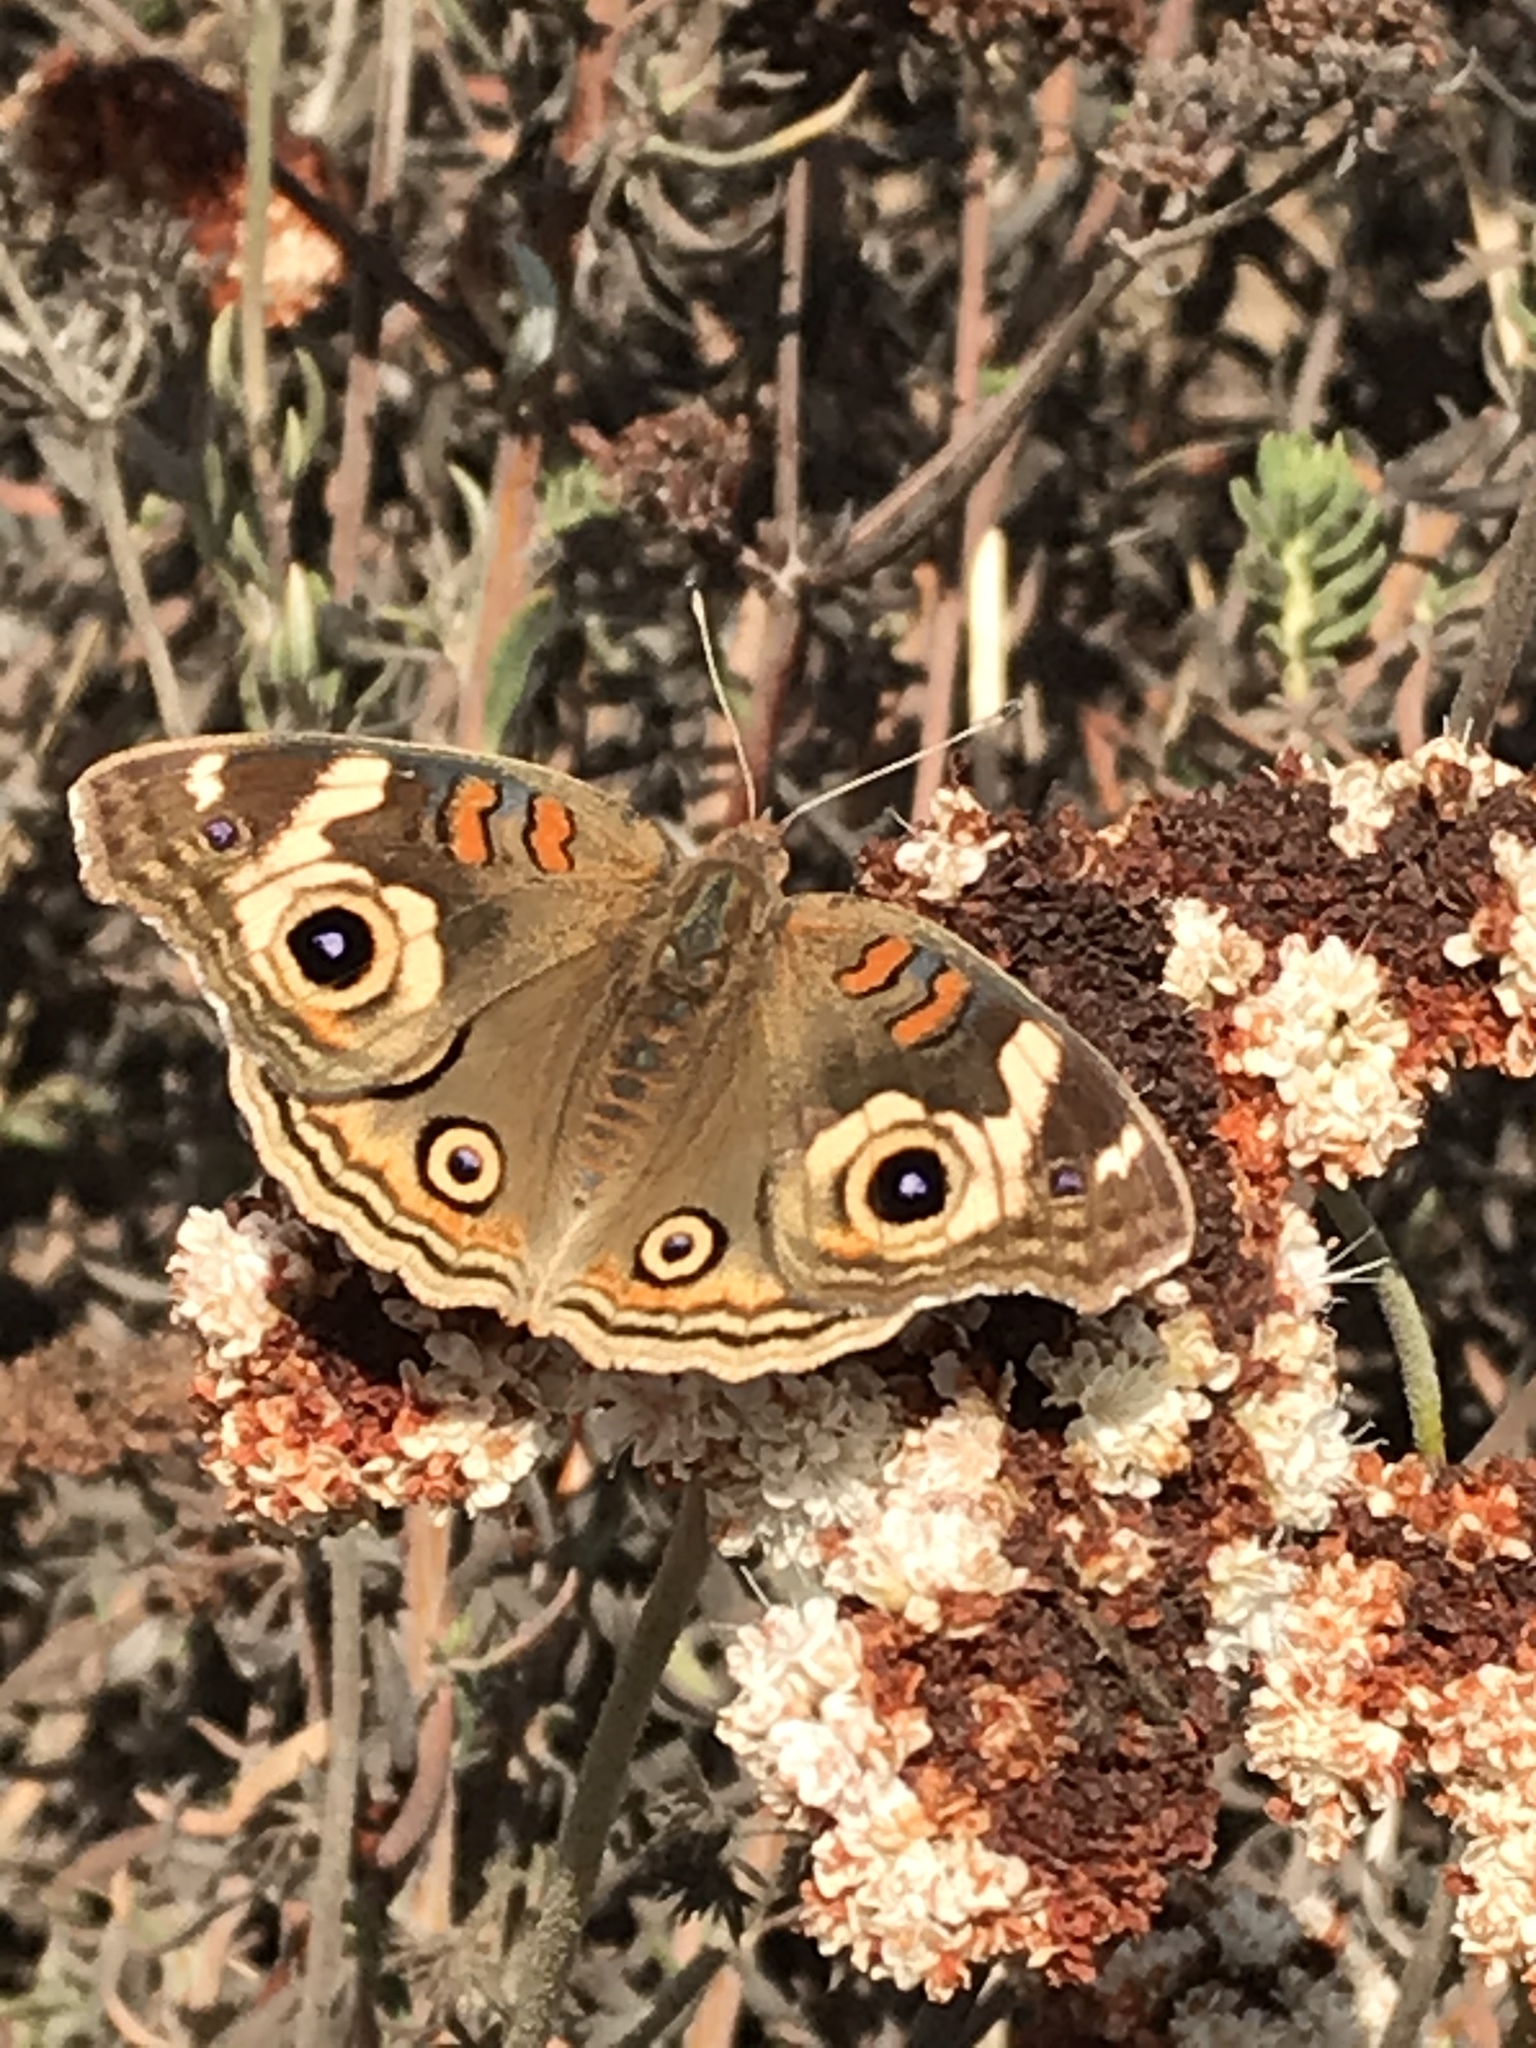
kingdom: Animalia
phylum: Arthropoda
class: Insecta
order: Lepidoptera
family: Nymphalidae
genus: Junonia
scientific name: Junonia grisea
